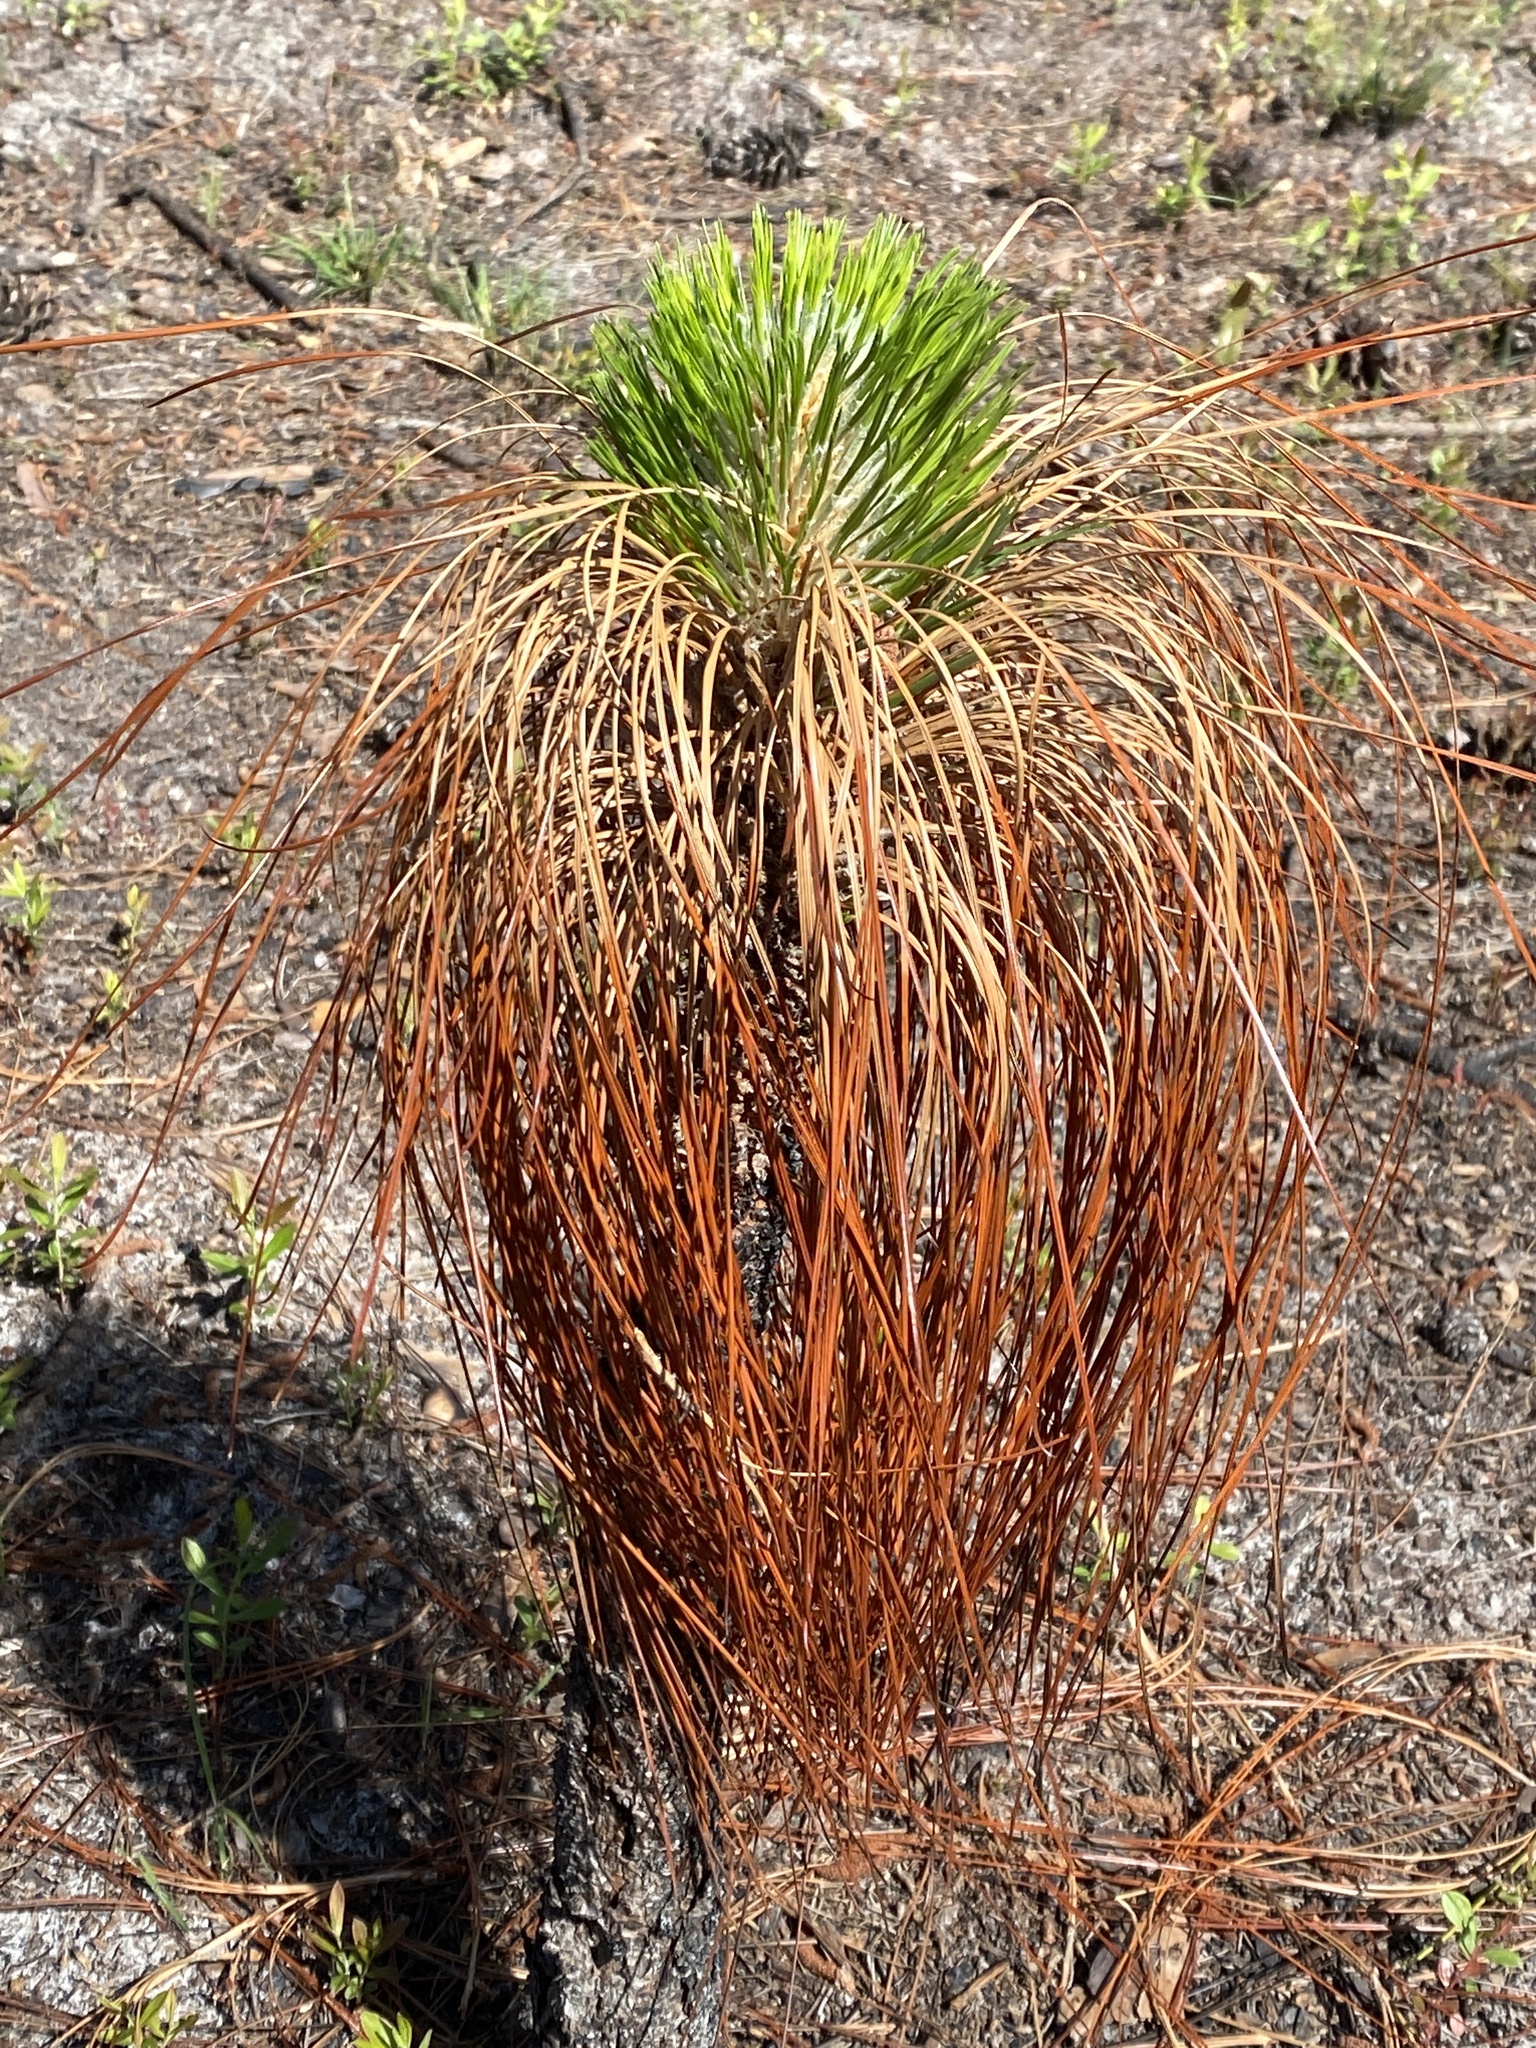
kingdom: Plantae
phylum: Tracheophyta
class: Pinopsida
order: Pinales
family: Pinaceae
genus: Pinus
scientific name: Pinus palustris
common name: Longleaf pine
